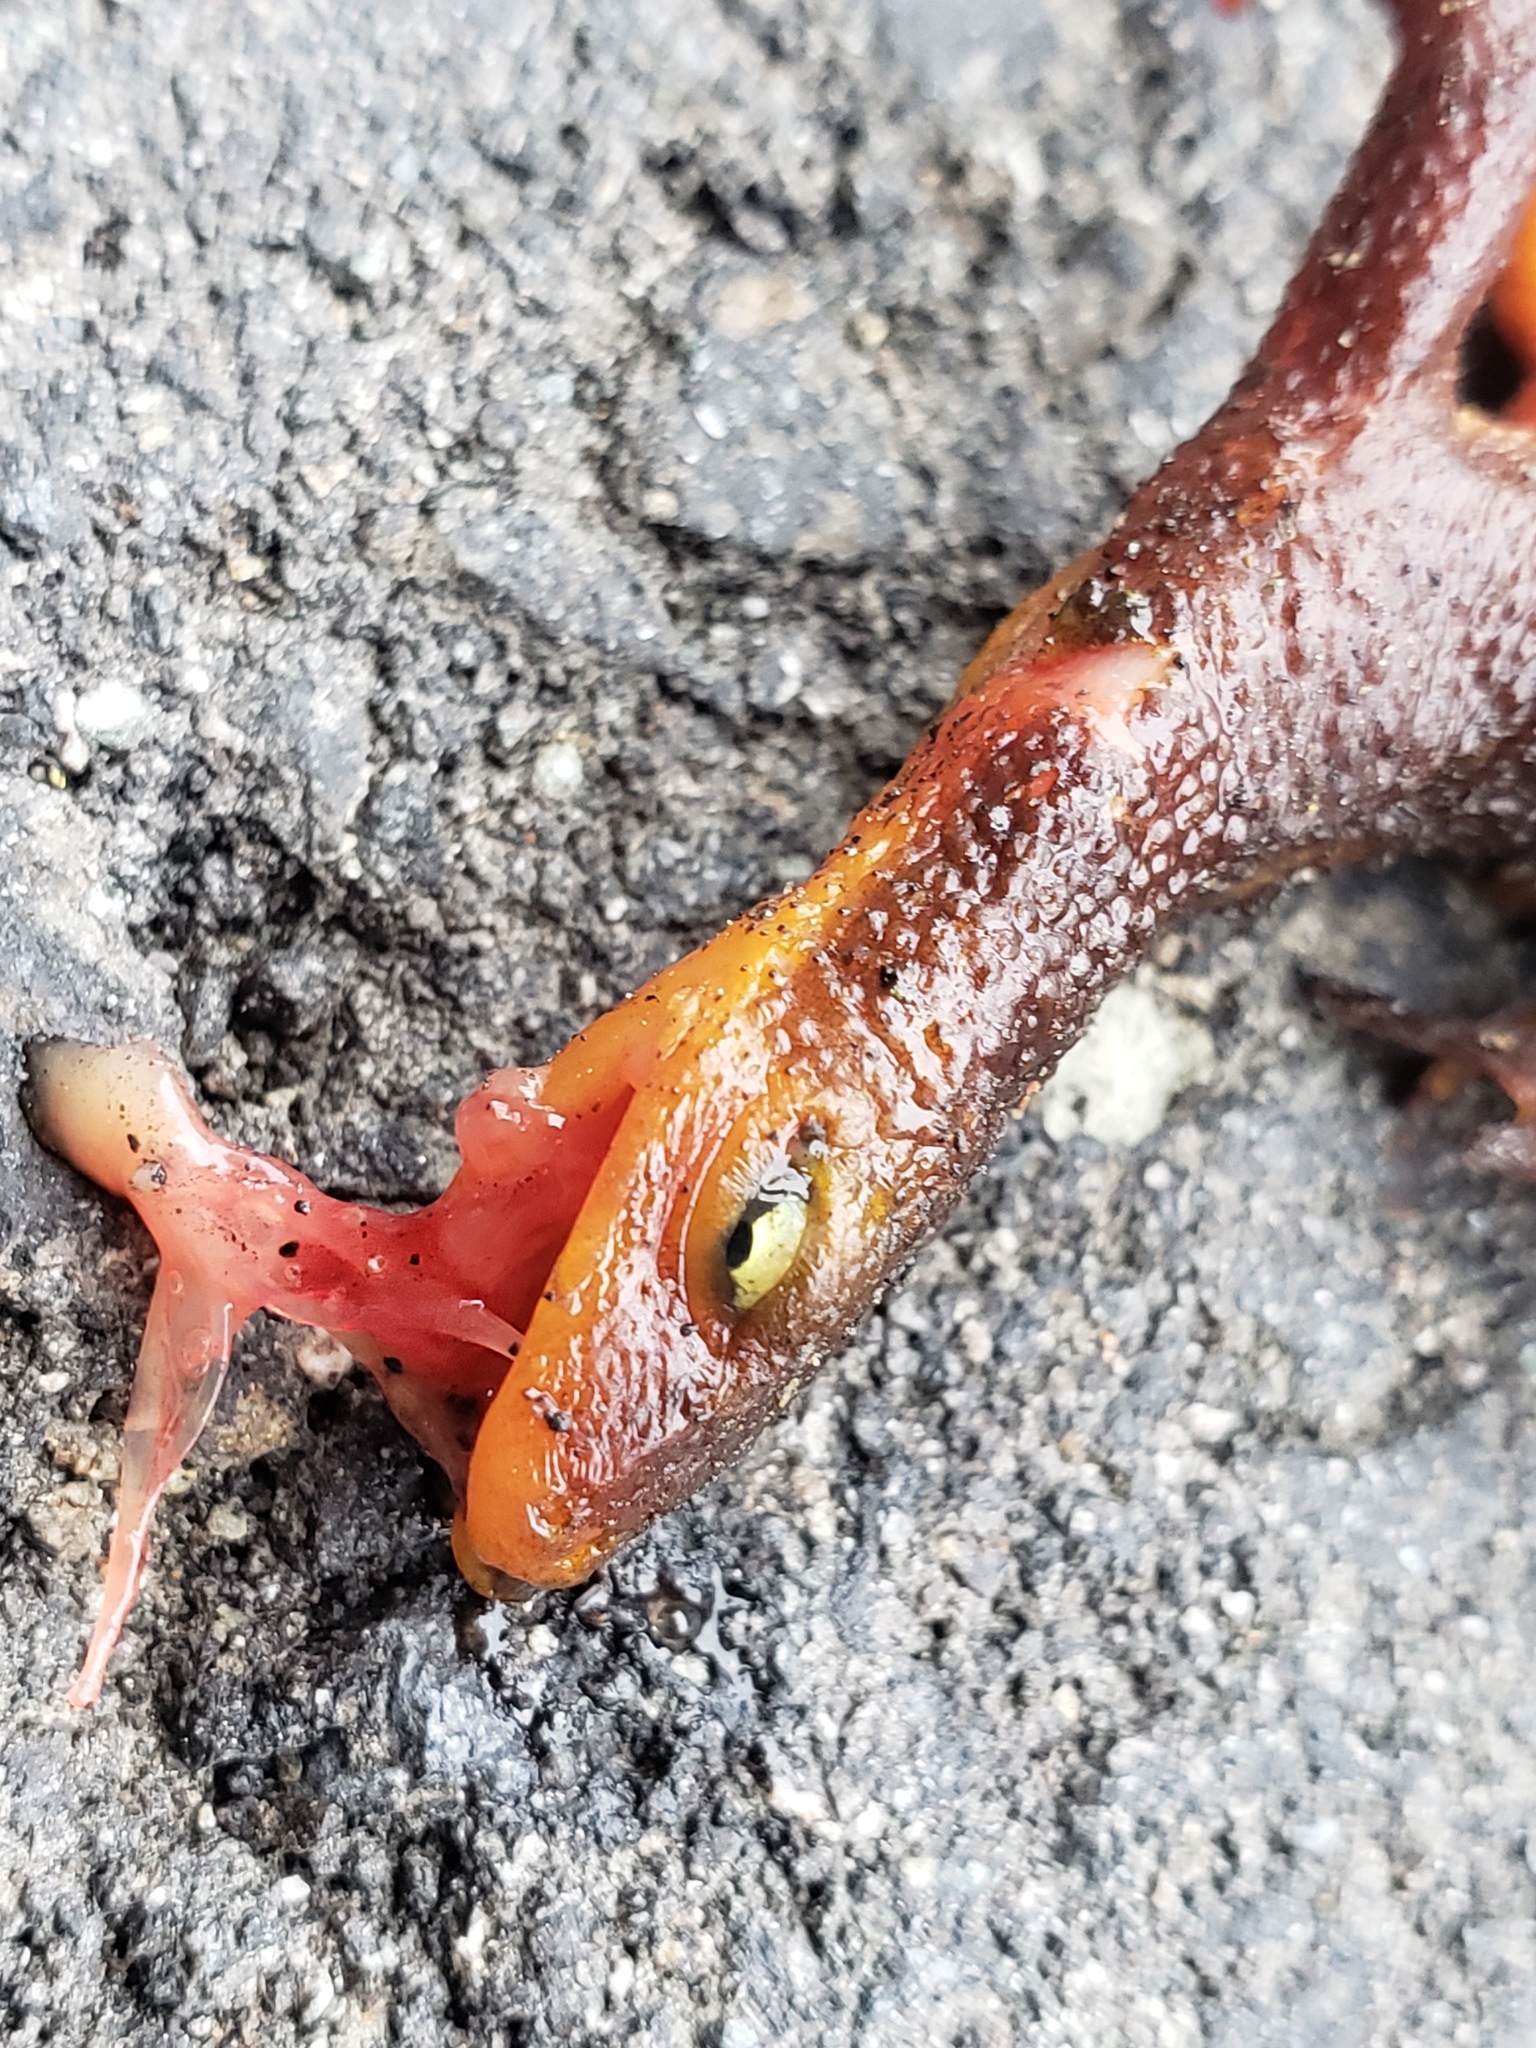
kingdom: Animalia
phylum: Chordata
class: Amphibia
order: Caudata
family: Salamandridae
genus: Taricha
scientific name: Taricha
